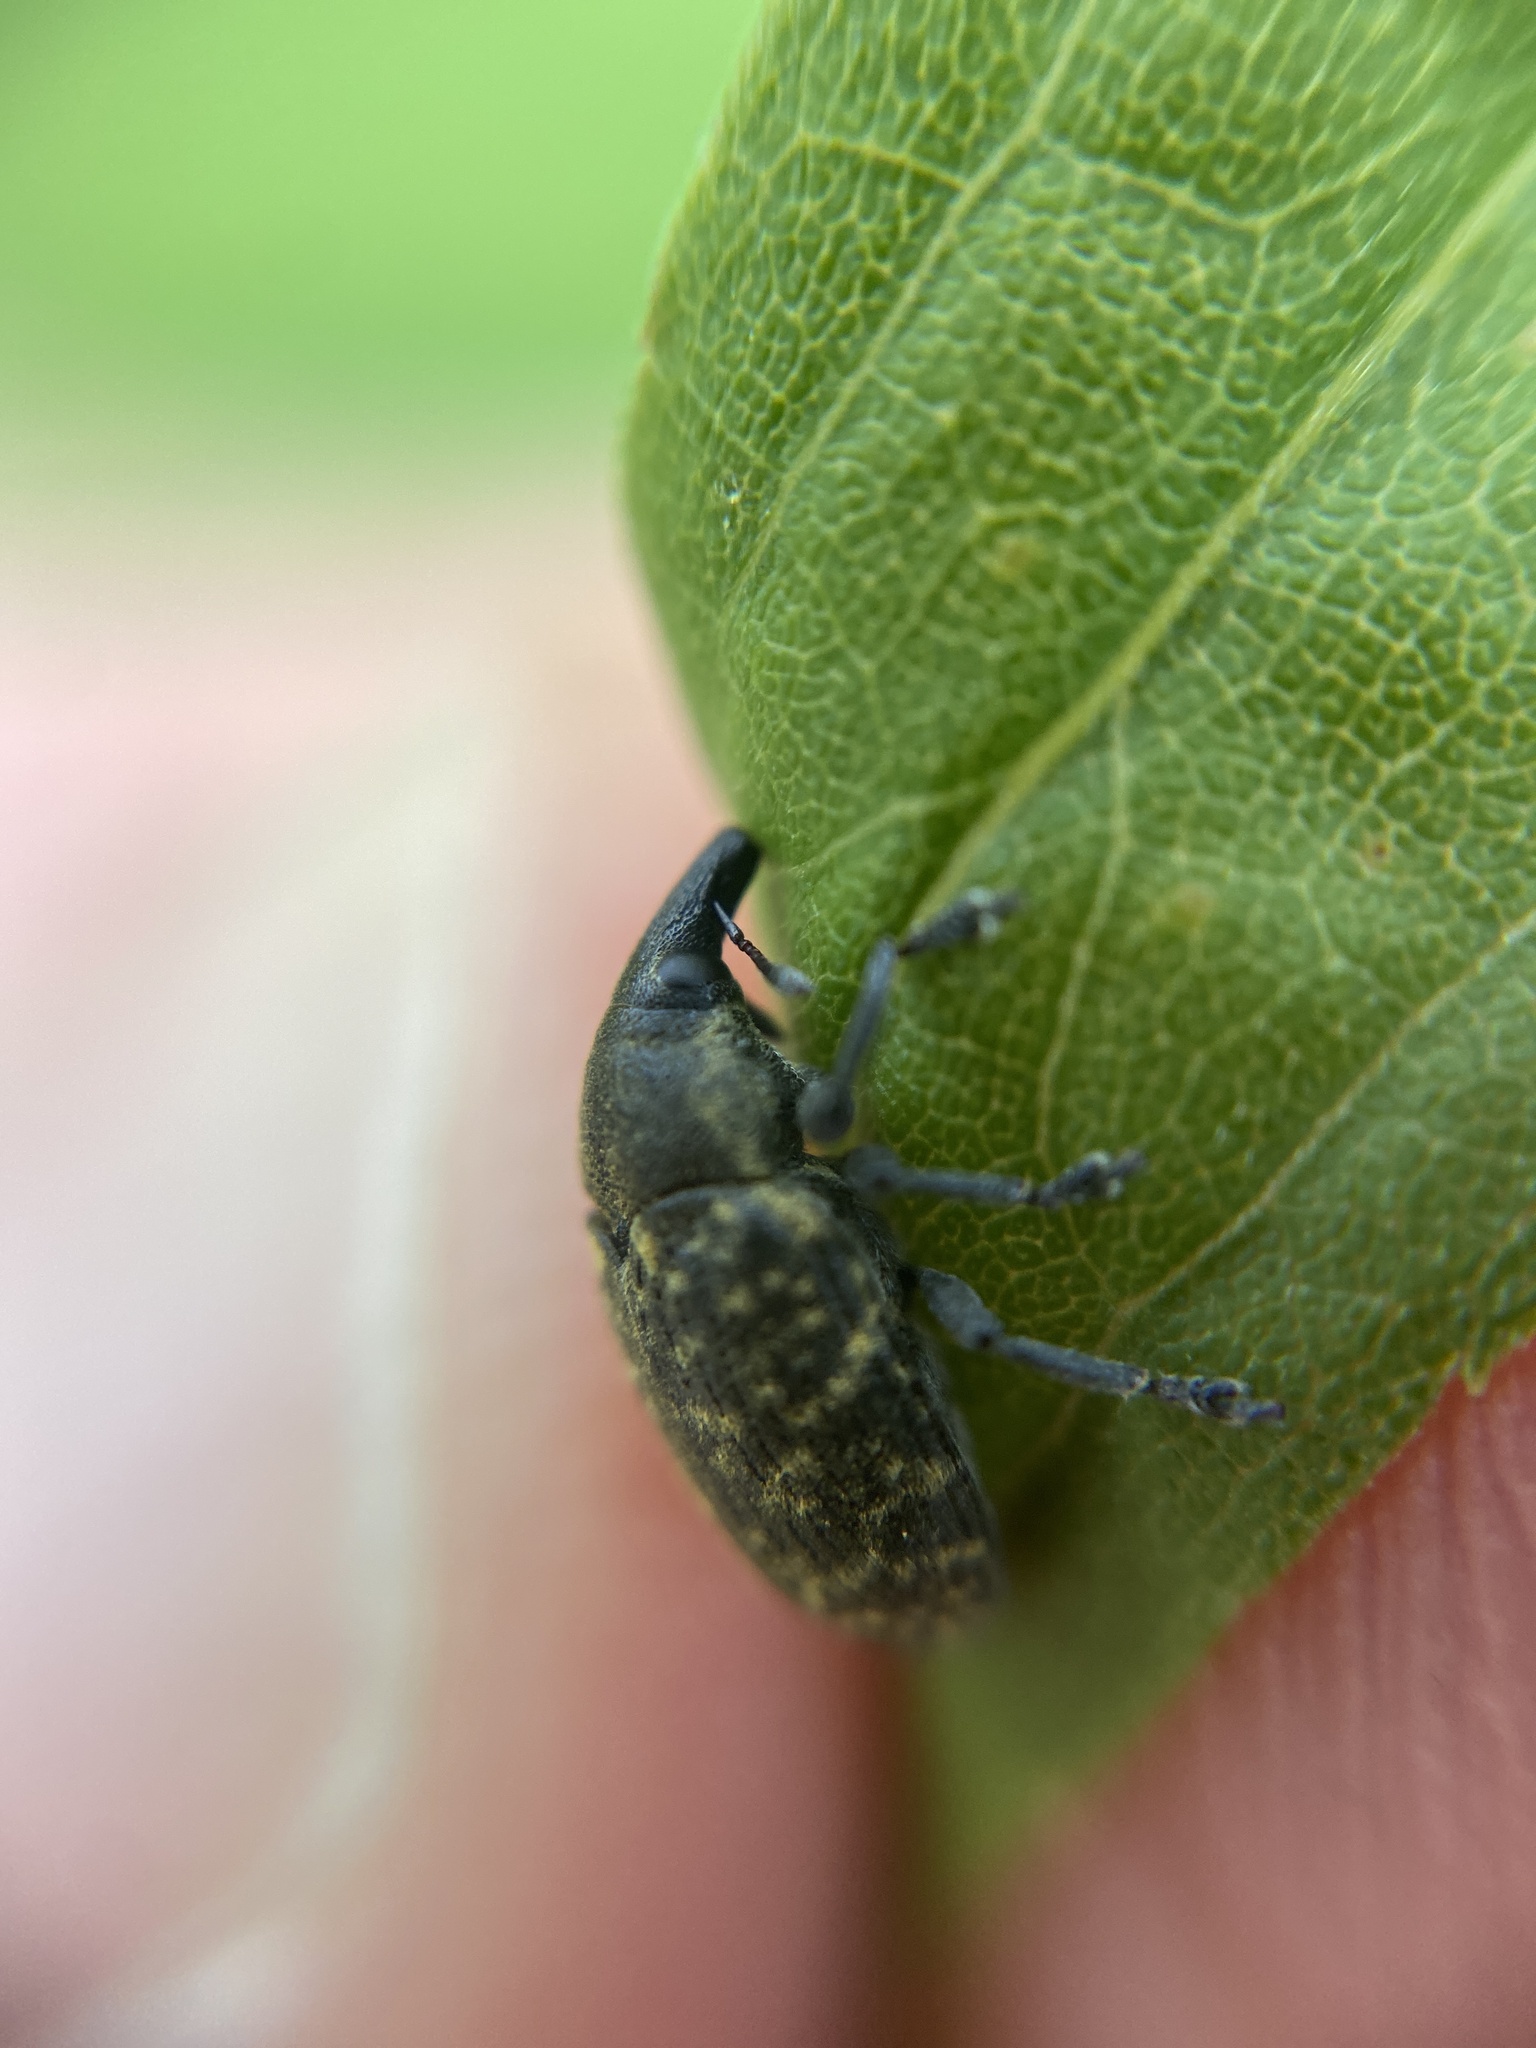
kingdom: Animalia
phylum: Arthropoda
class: Insecta
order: Coleoptera
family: Curculionidae
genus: Larinus
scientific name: Larinus turbinatus
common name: Weevil
